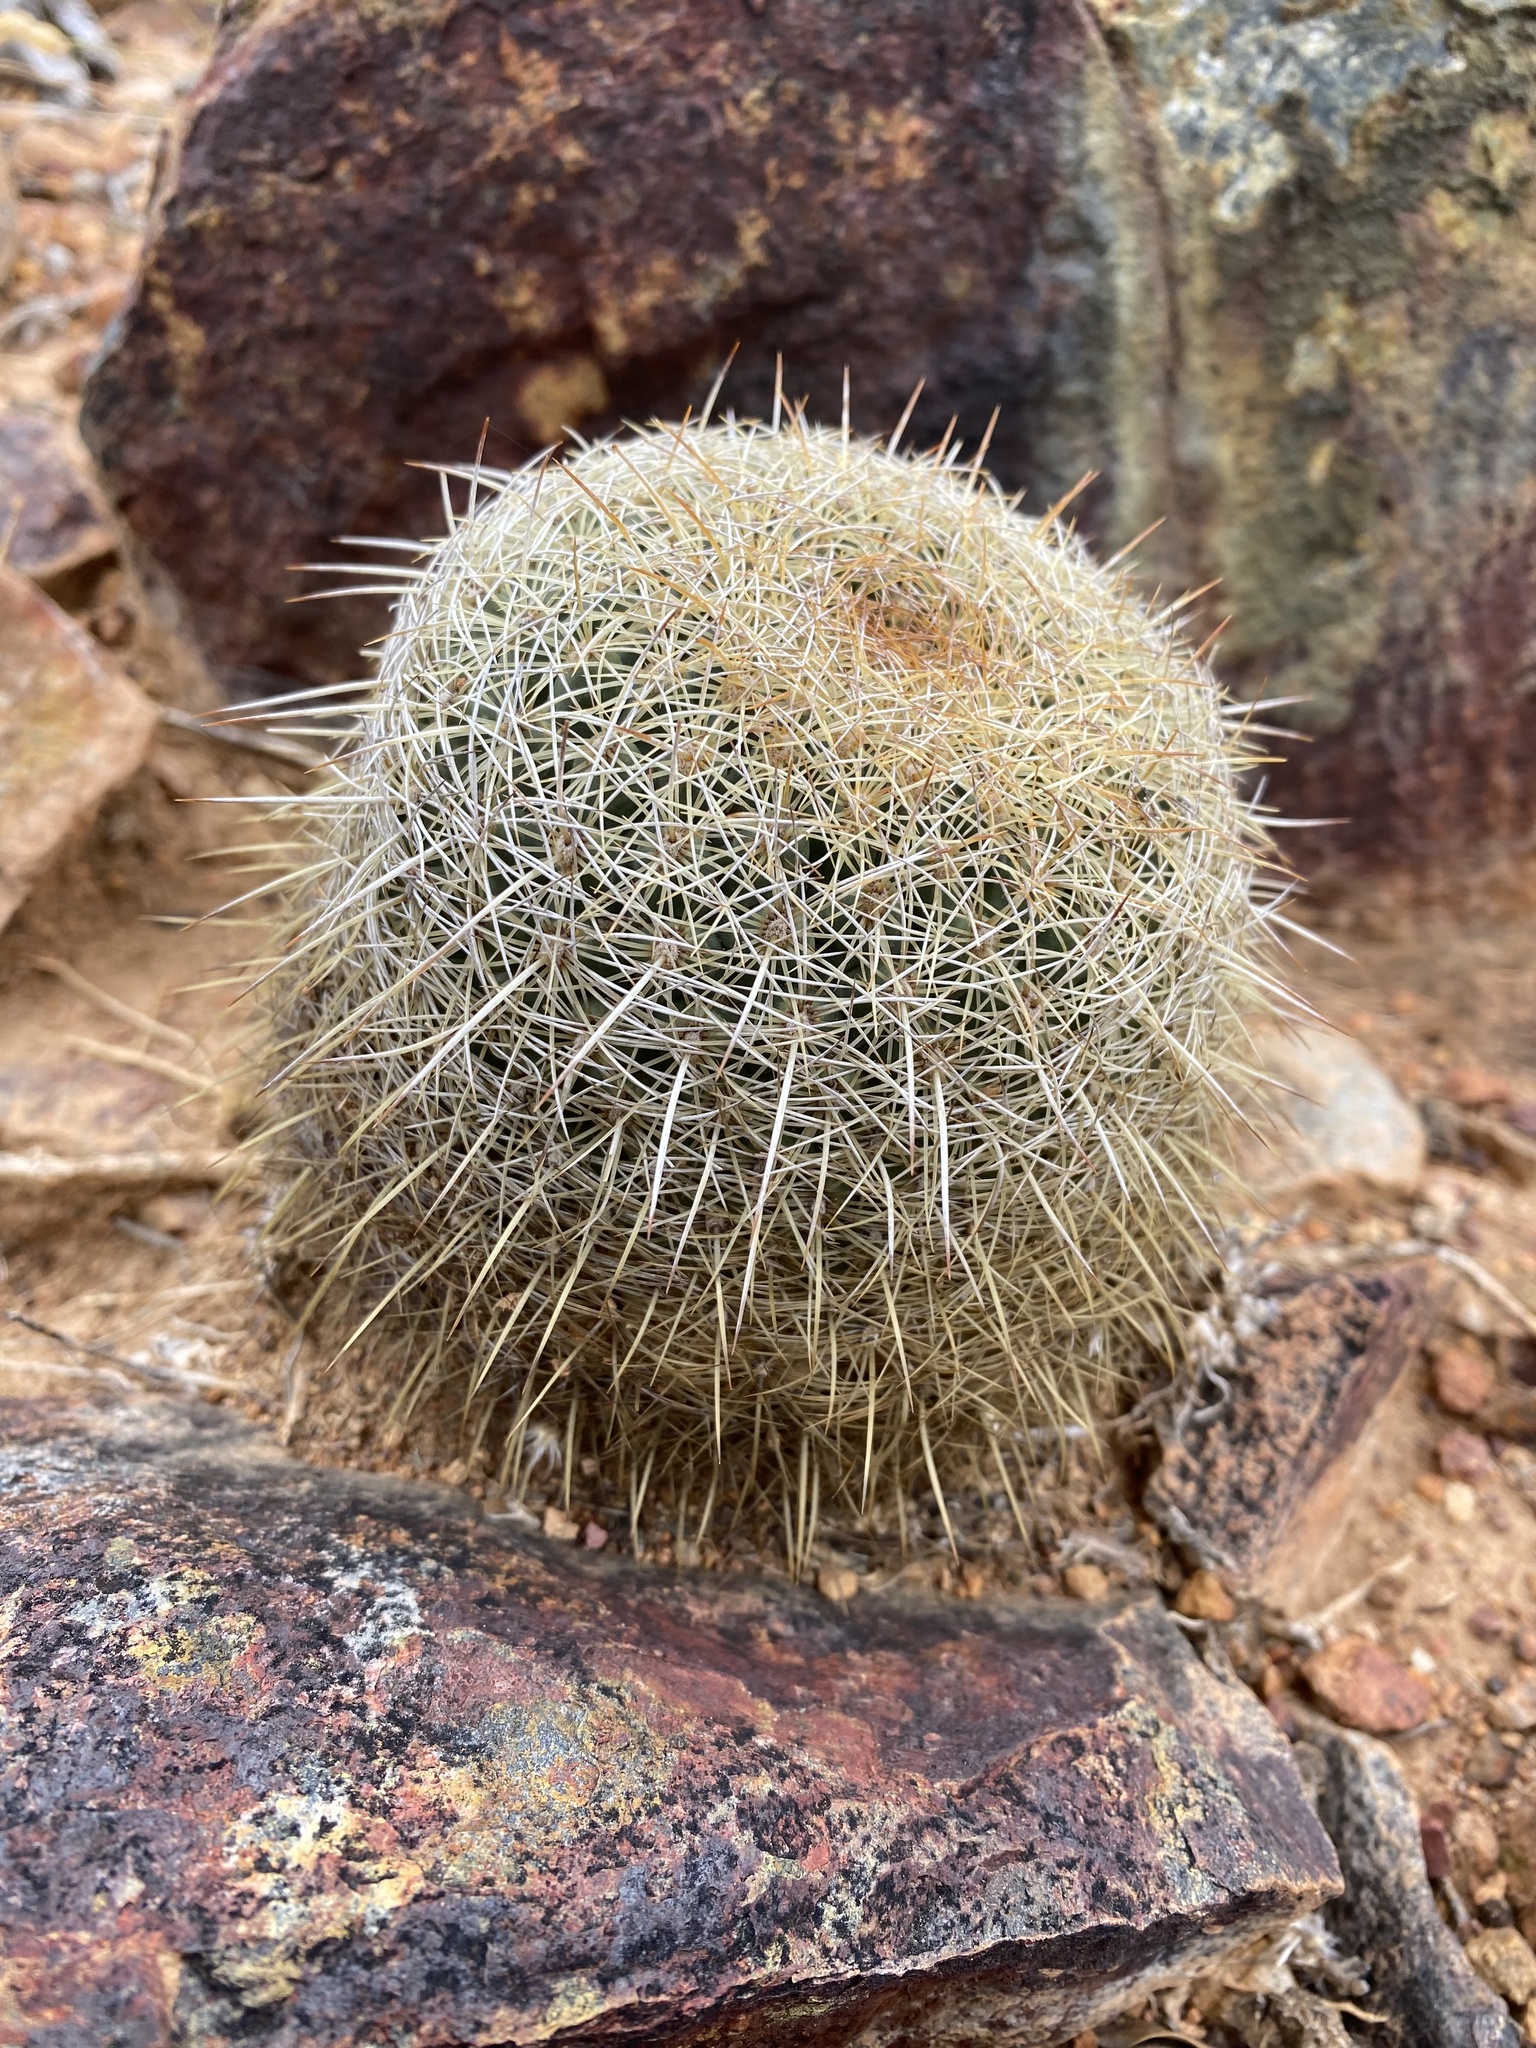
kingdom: Plantae
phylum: Tracheophyta
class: Magnoliopsida
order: Caryophyllales
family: Cactaceae
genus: Coryphantha
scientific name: Coryphantha recurvata
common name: Golden chested beehive
